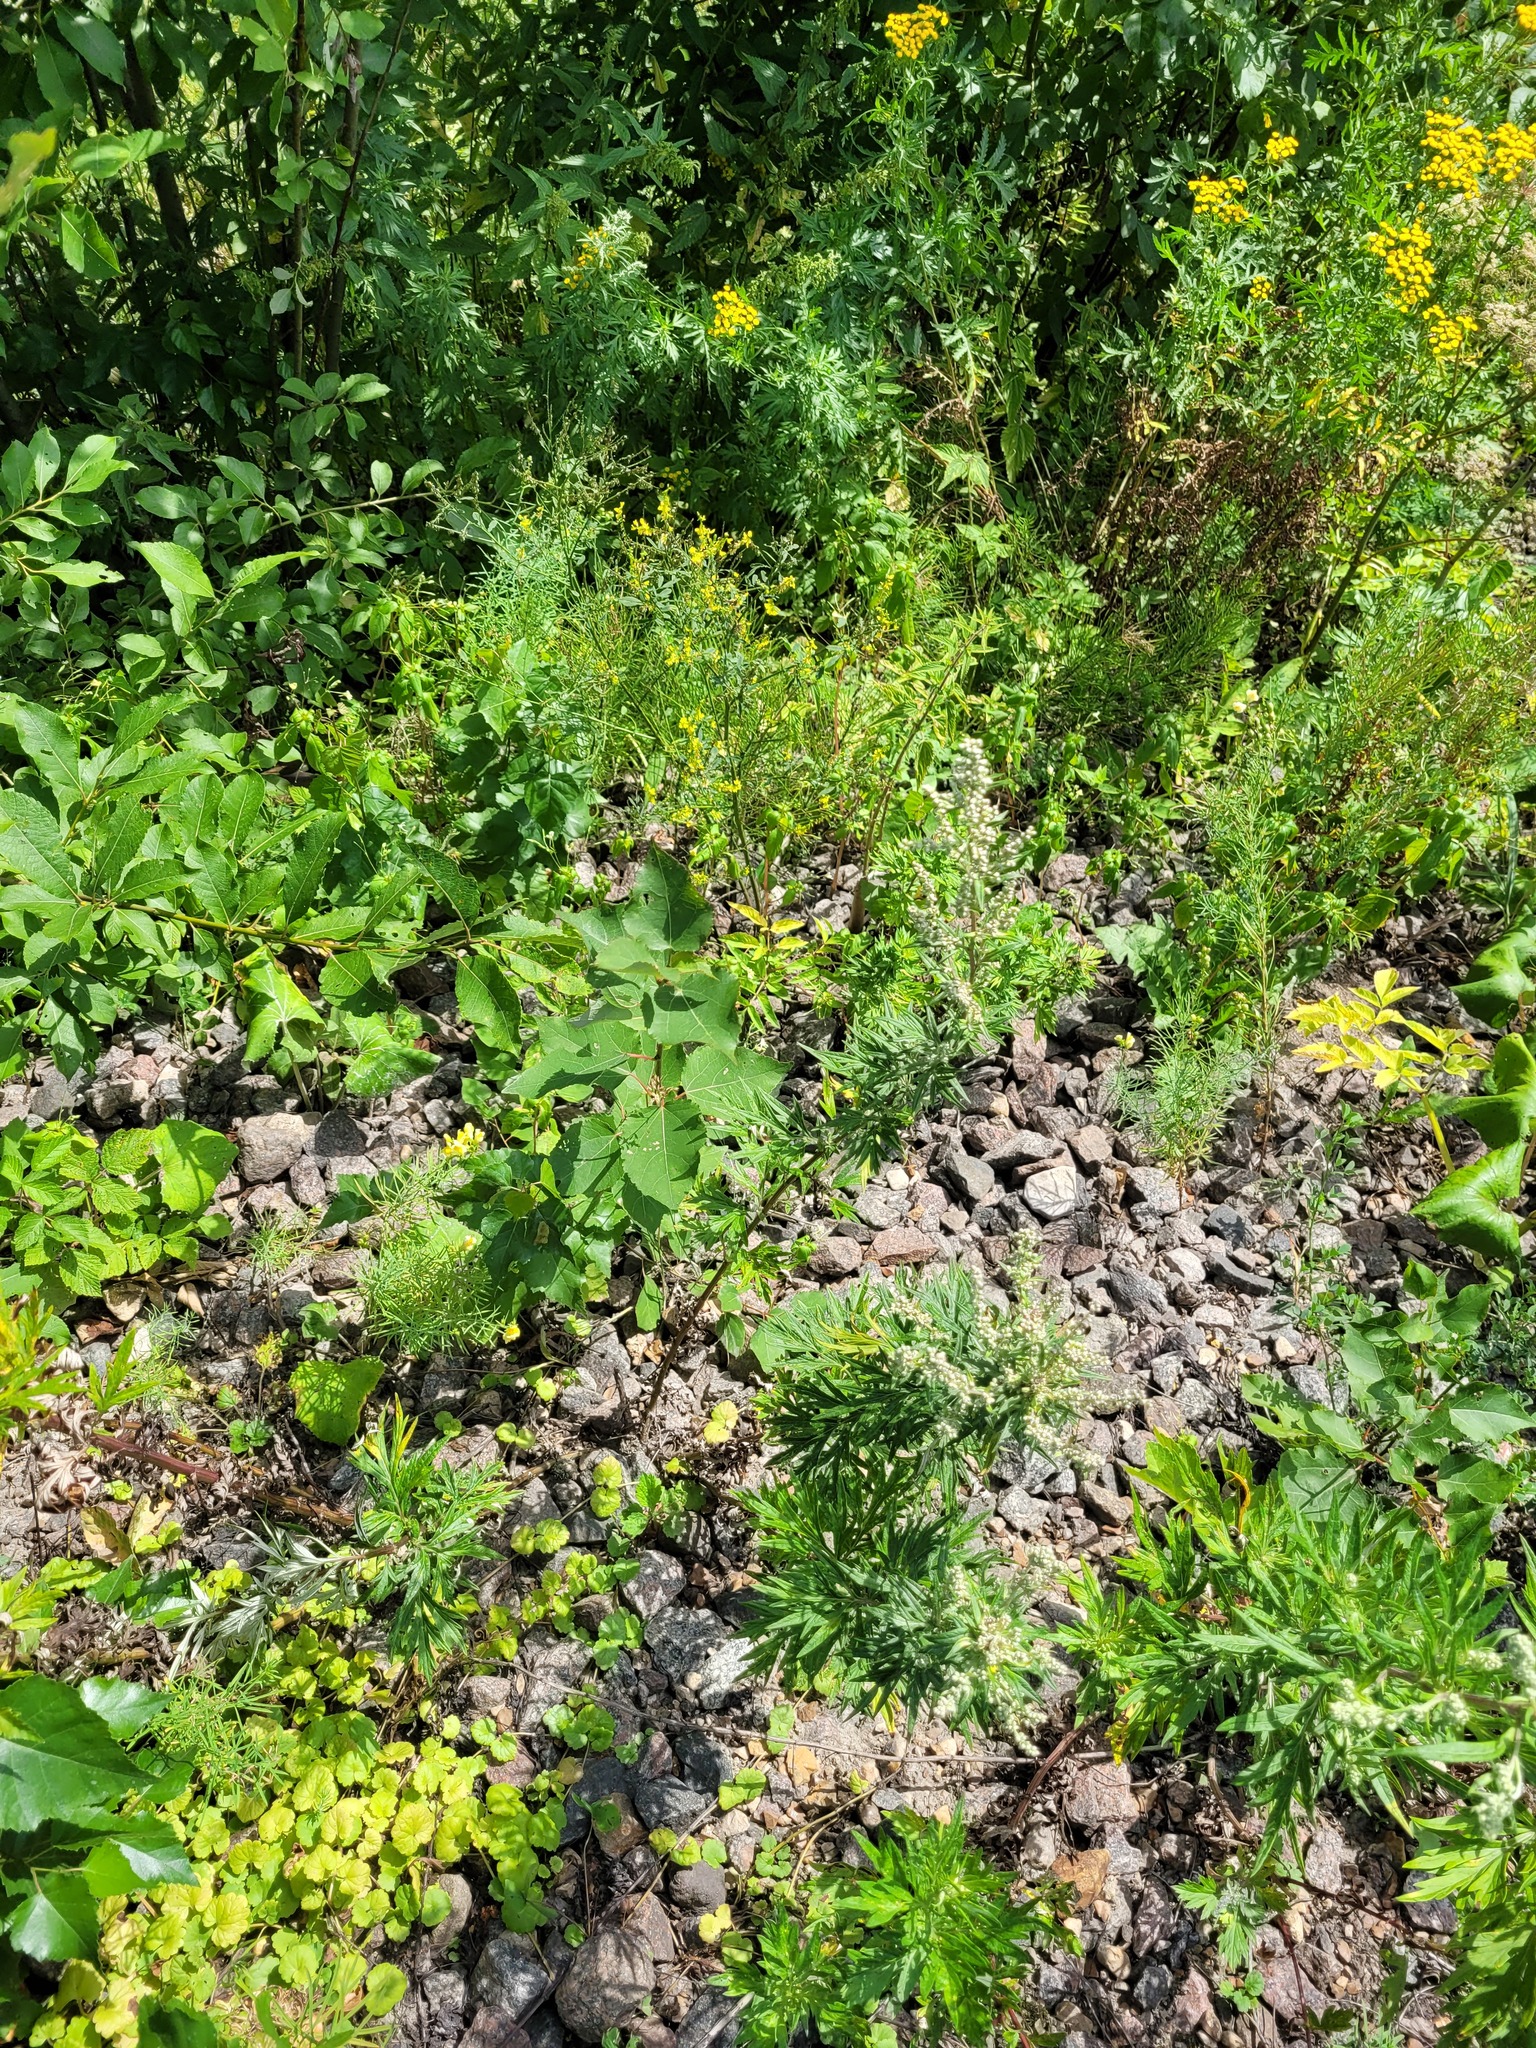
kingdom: Plantae
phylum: Tracheophyta
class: Magnoliopsida
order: Malpighiales
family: Salicaceae
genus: Populus
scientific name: Populus tremula
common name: European aspen
